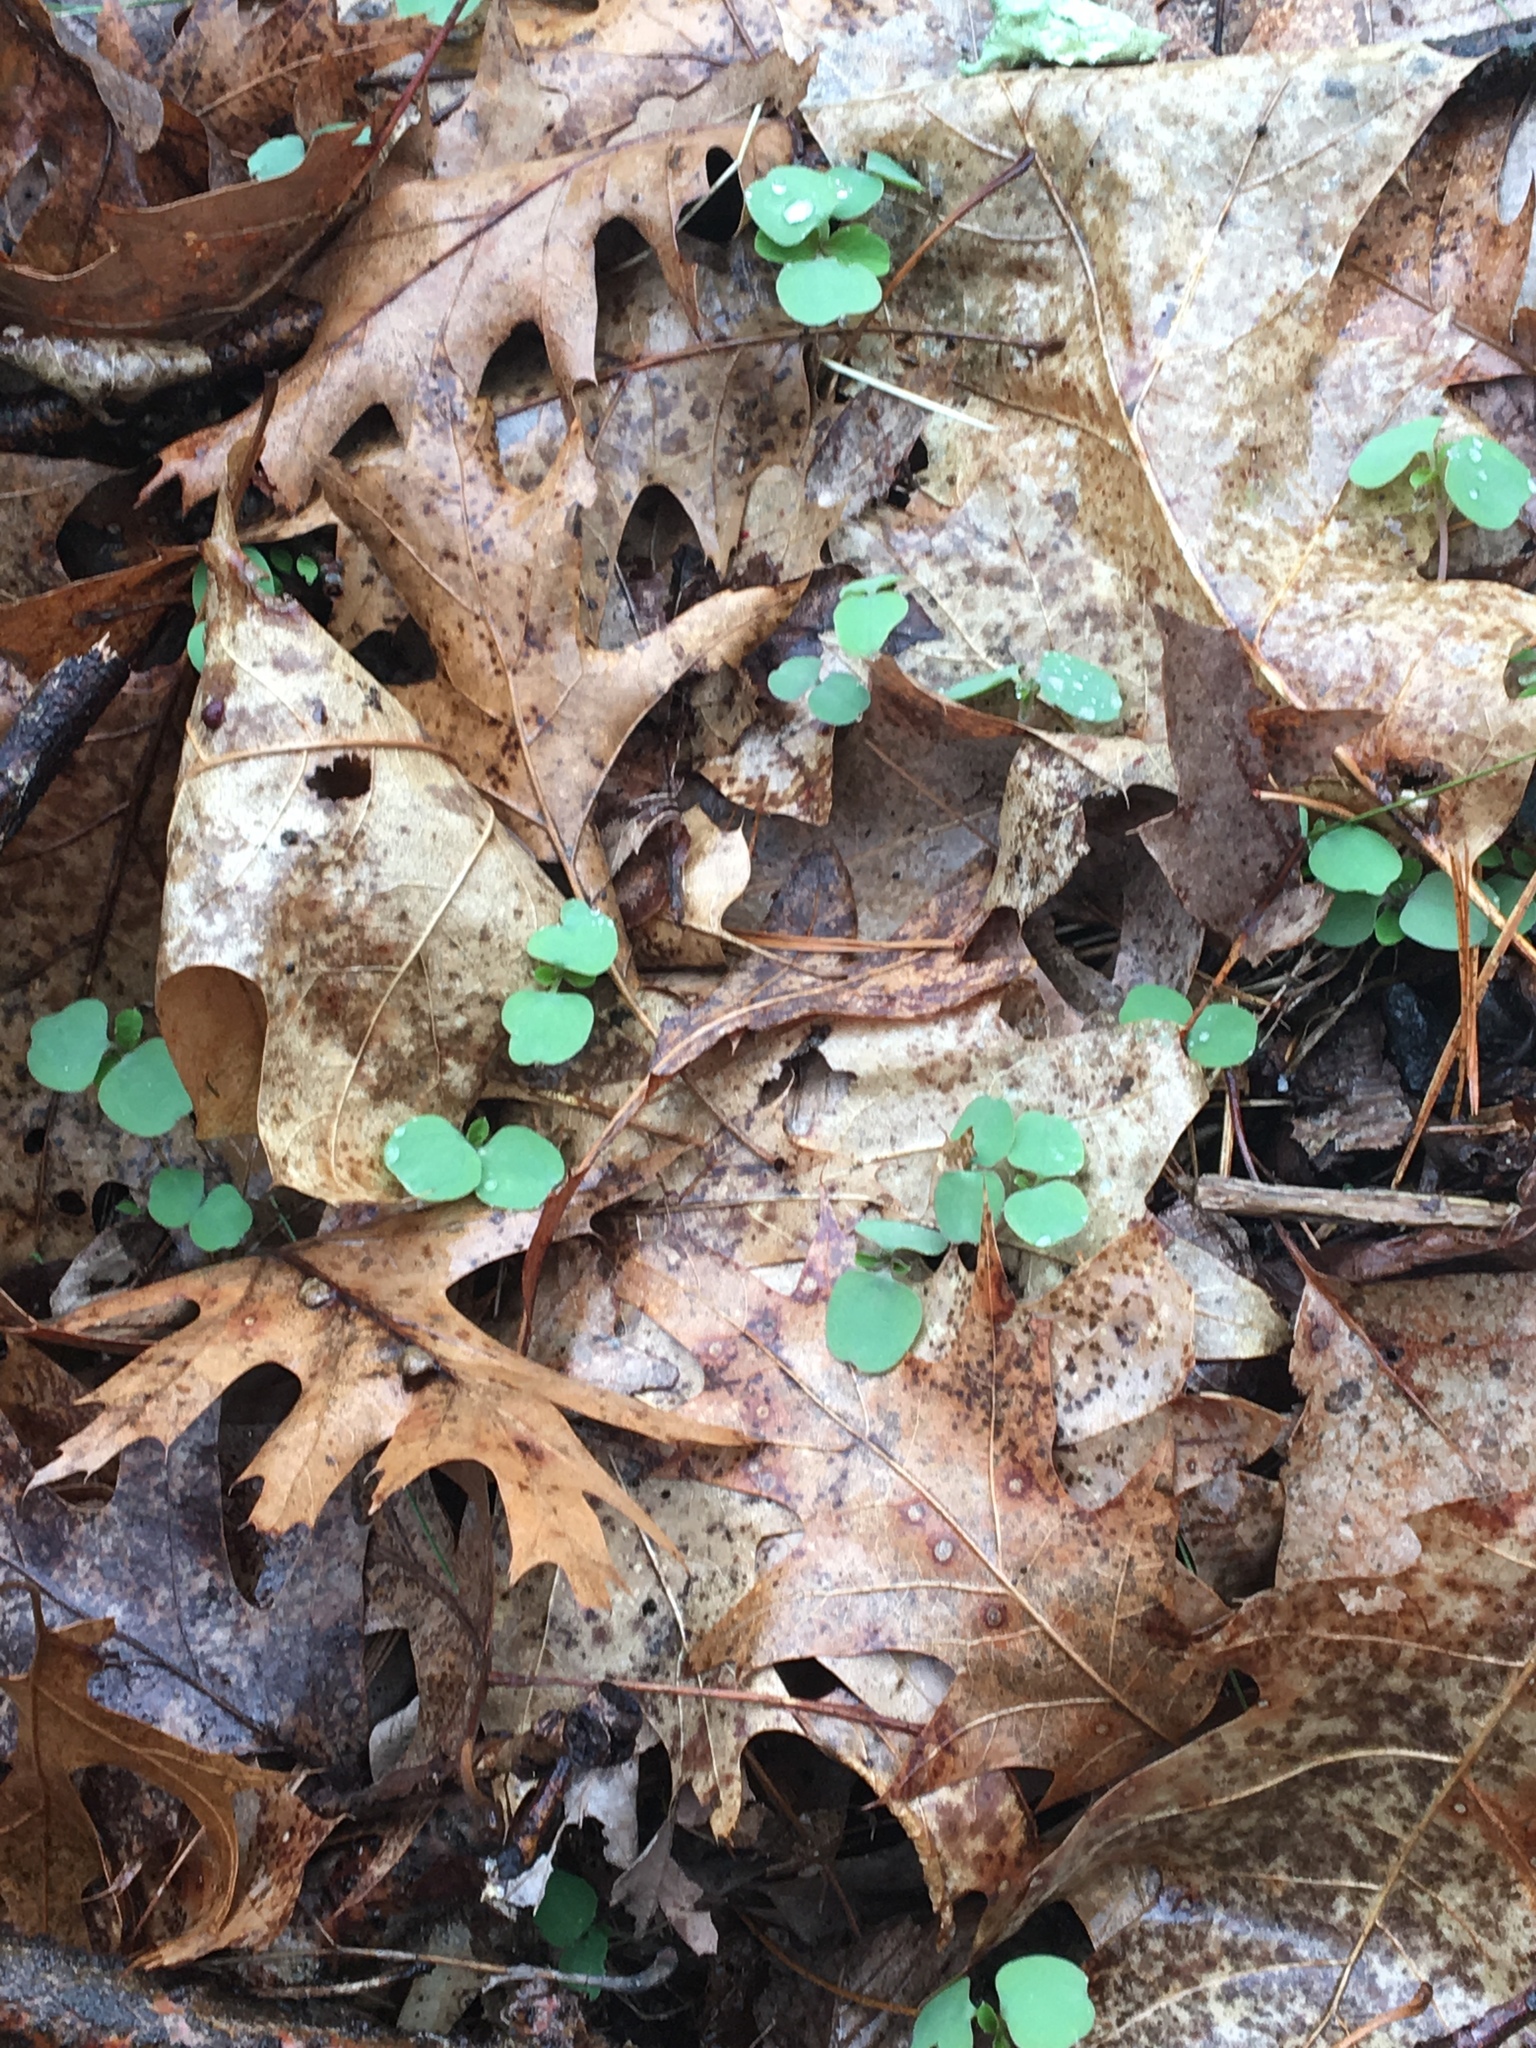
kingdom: Plantae
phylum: Tracheophyta
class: Magnoliopsida
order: Ericales
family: Balsaminaceae
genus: Impatiens
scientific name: Impatiens capensis
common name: Orange balsam
